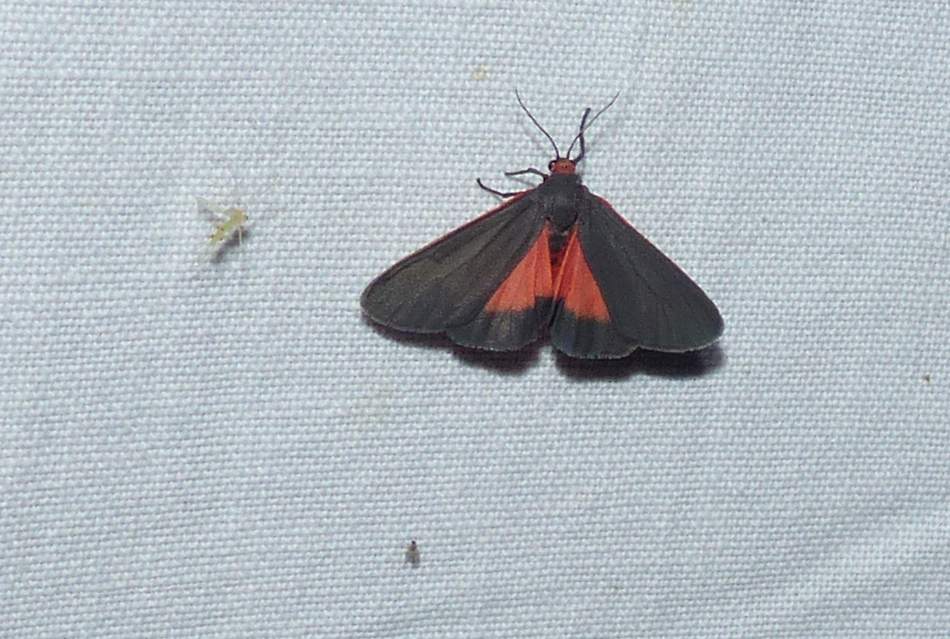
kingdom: Animalia
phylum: Arthropoda
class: Insecta
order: Lepidoptera
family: Erebidae
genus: Virbia
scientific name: Virbia laeta
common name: Joyful holomelina moth
